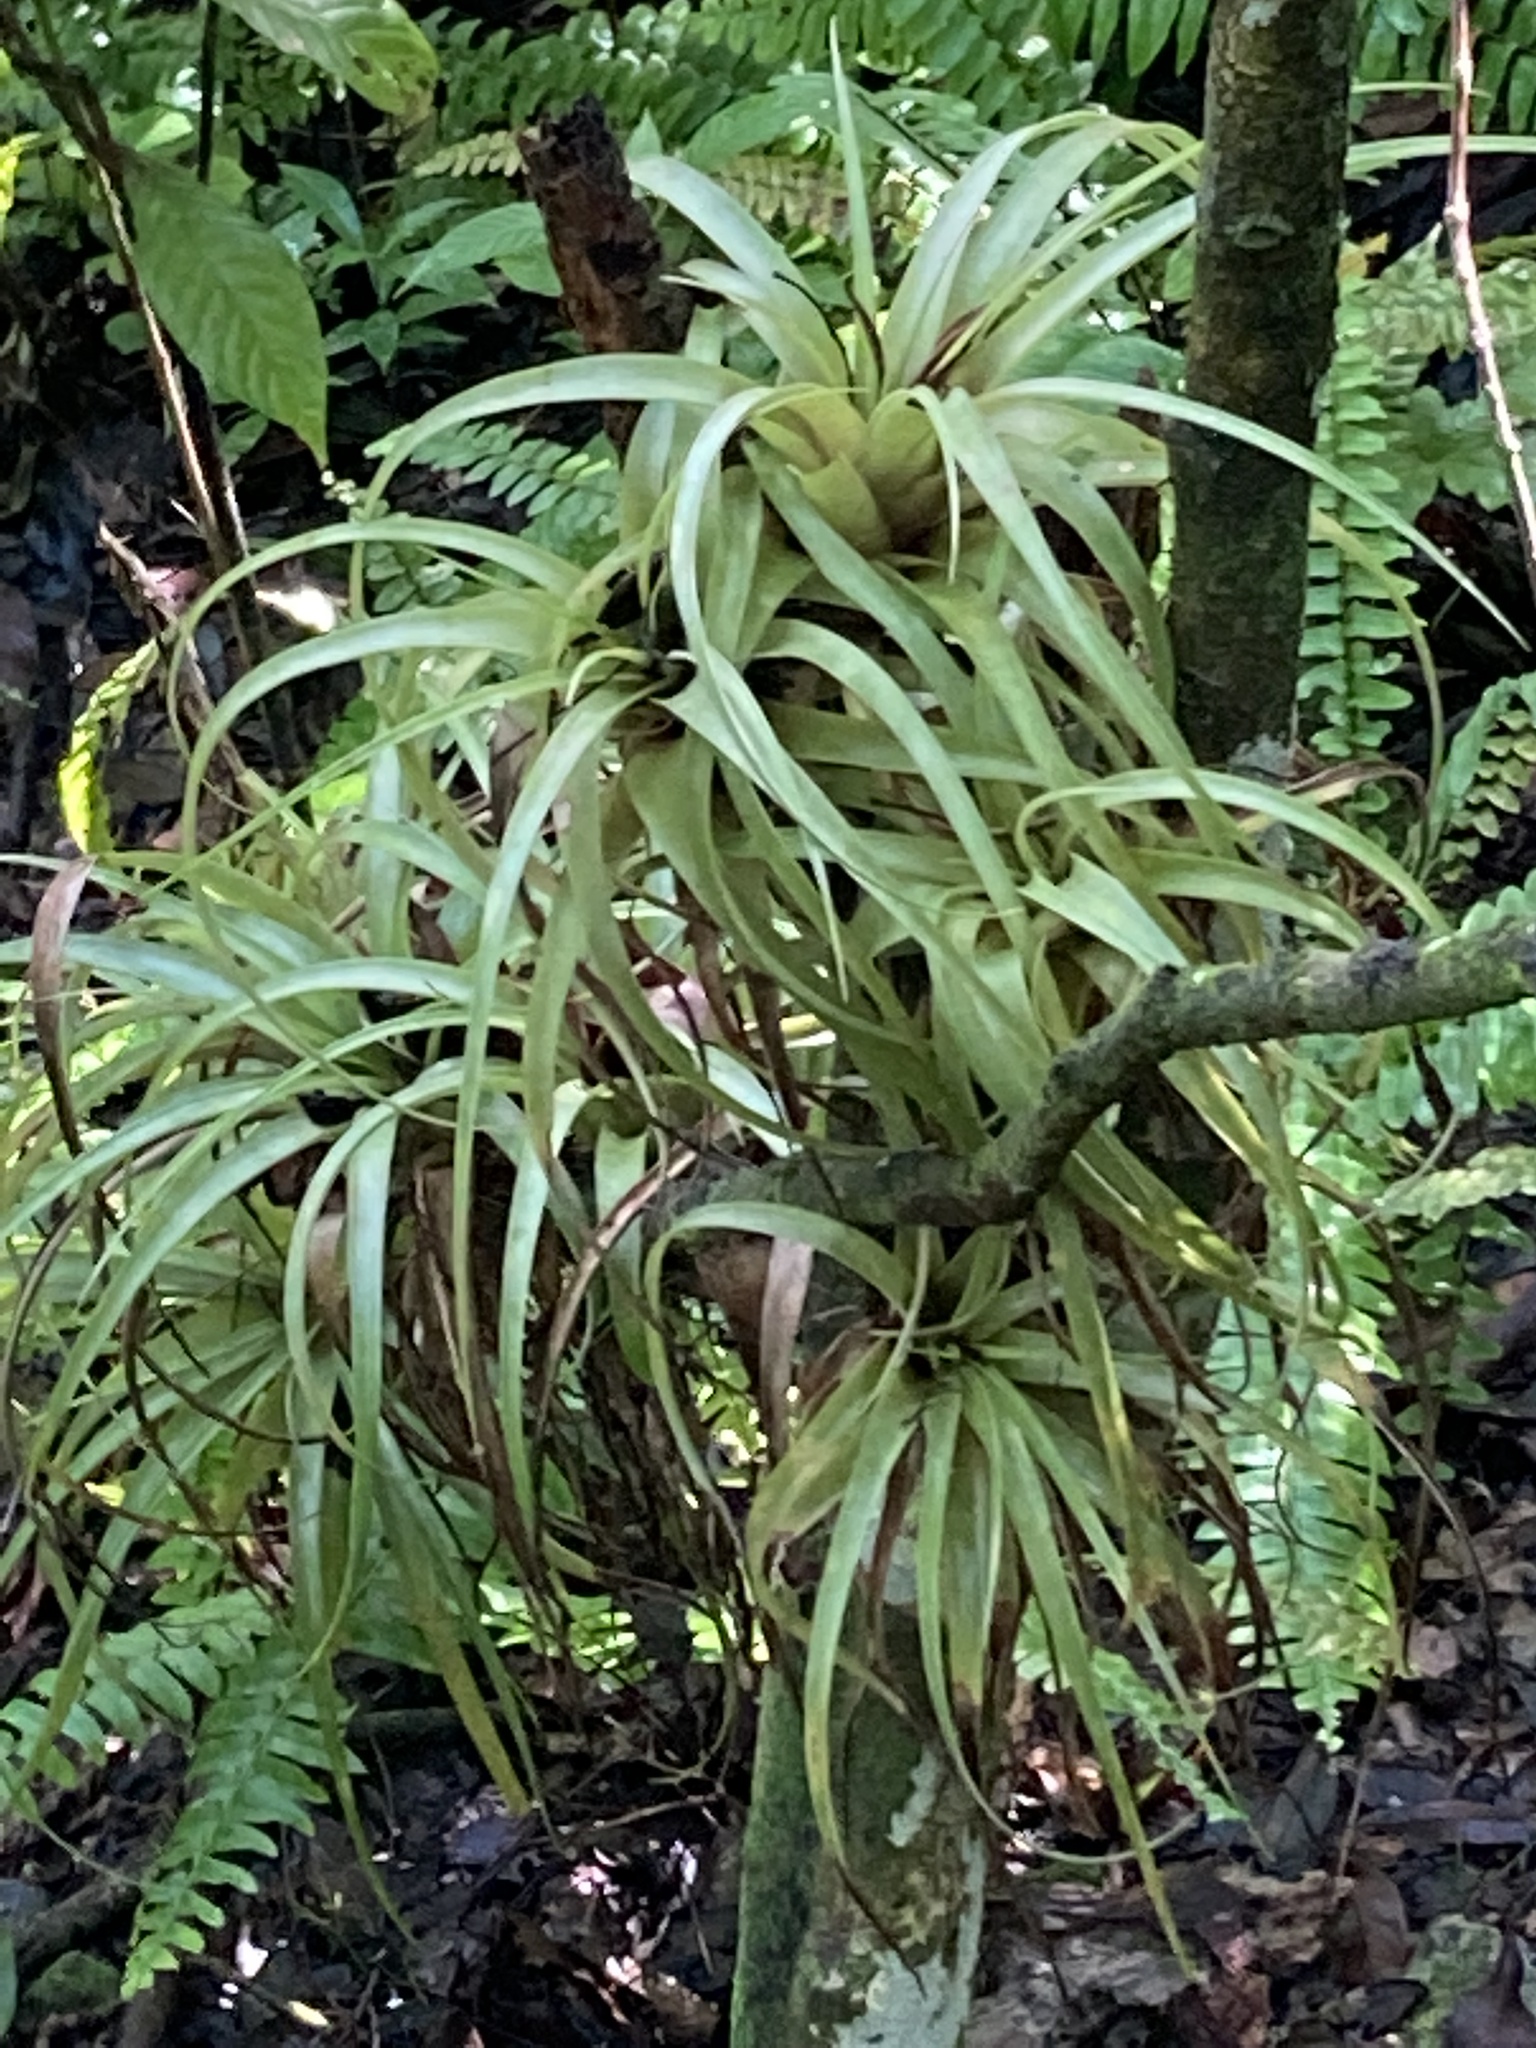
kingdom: Plantae
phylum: Tracheophyta
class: Liliopsida
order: Poales
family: Bromeliaceae
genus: Tillandsia
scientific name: Tillandsia utriculata
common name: Wild pine
